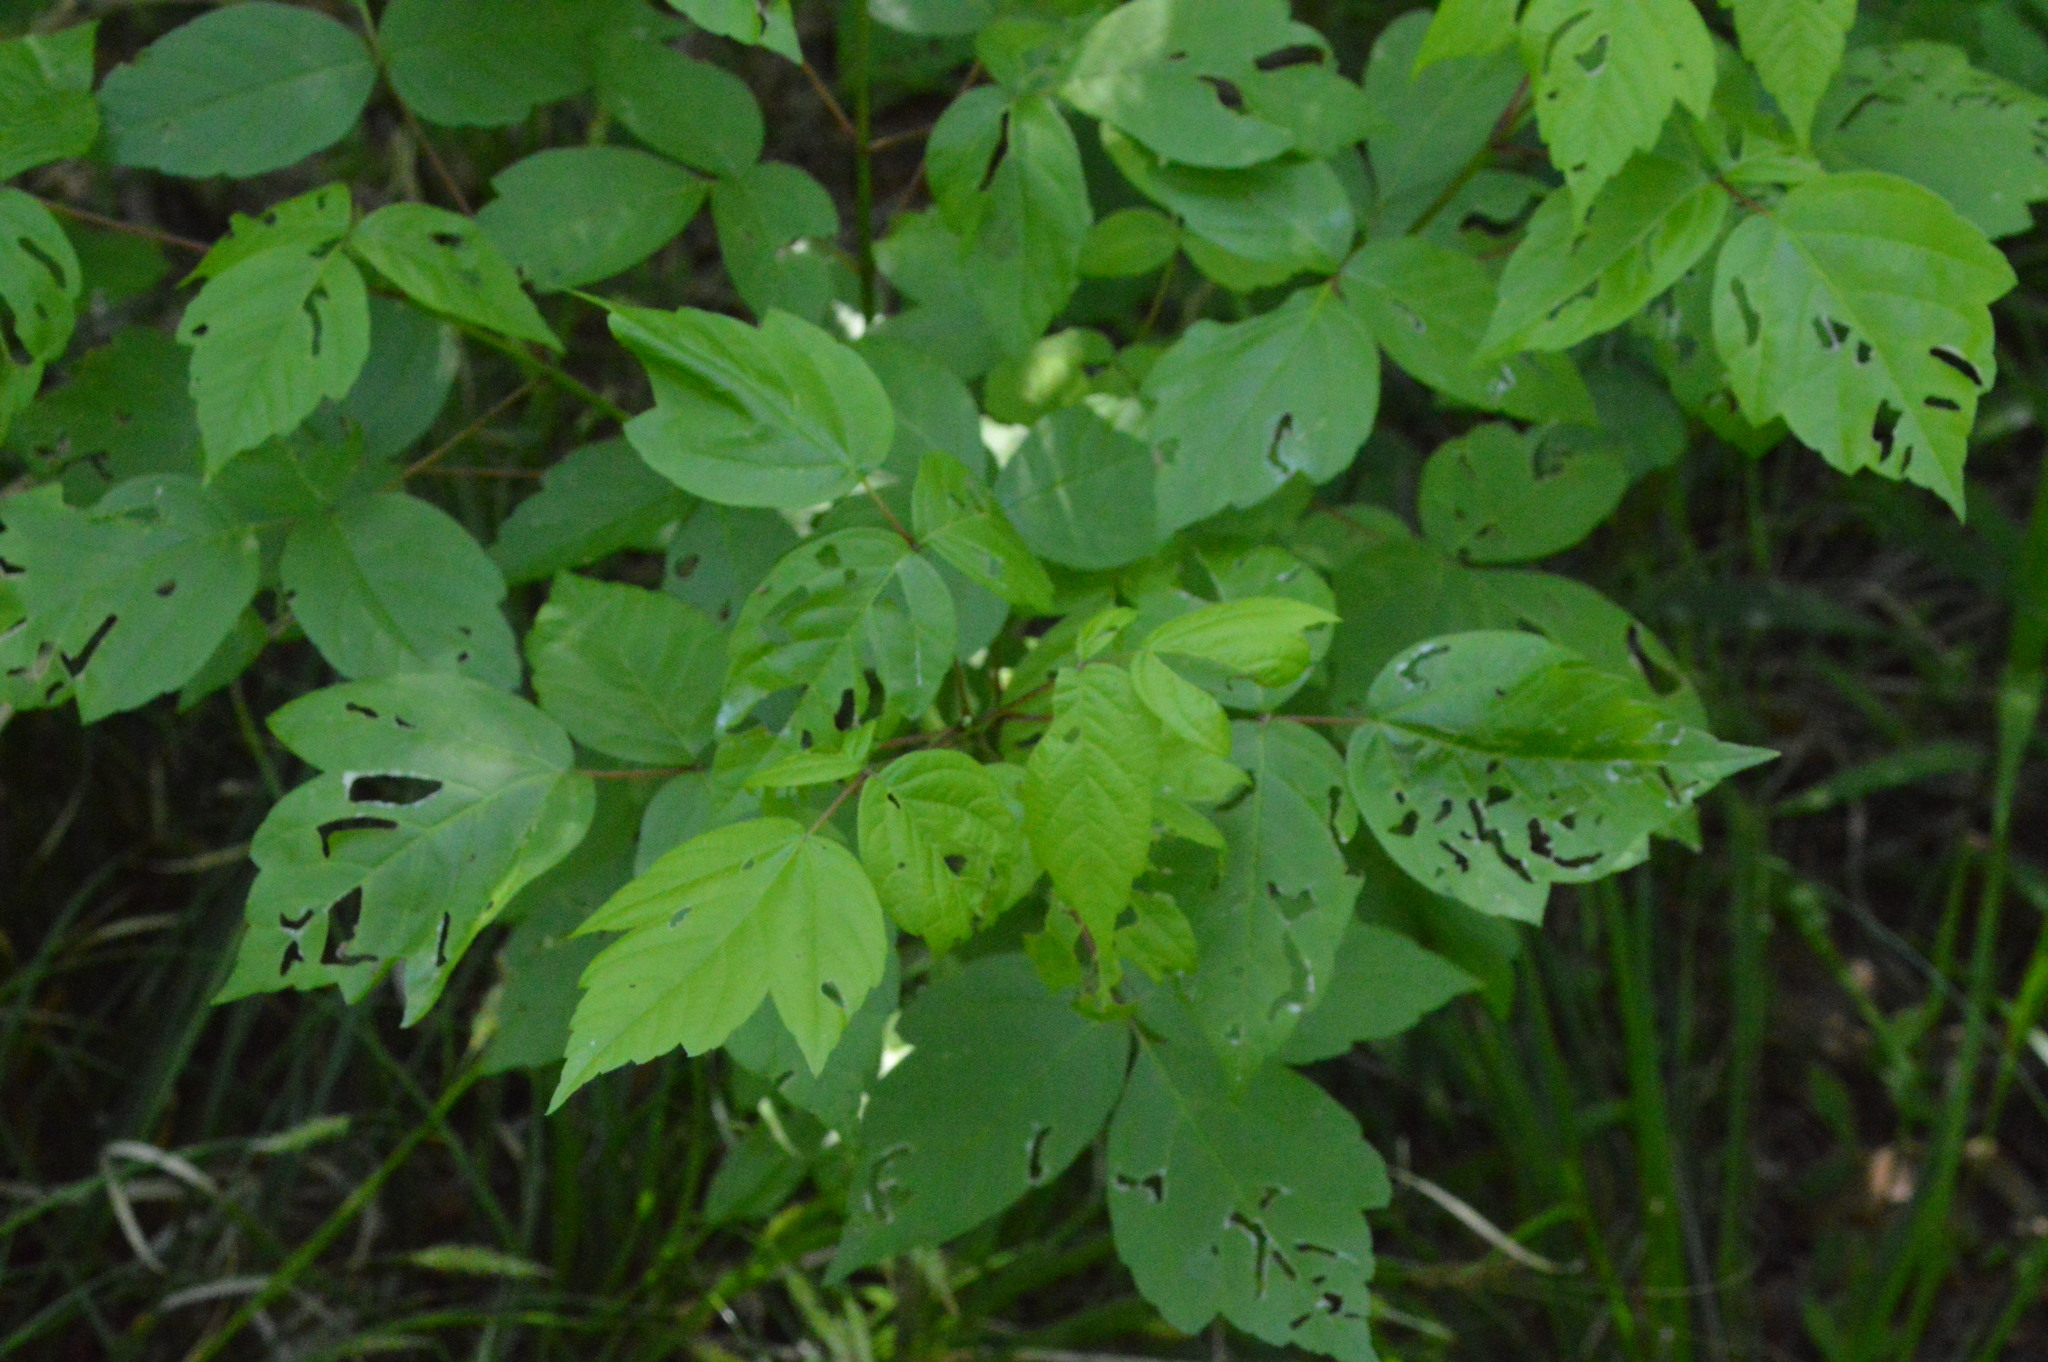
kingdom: Plantae
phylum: Tracheophyta
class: Magnoliopsida
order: Sapindales
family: Sapindaceae
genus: Acer
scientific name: Acer negundo
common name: Ashleaf maple
